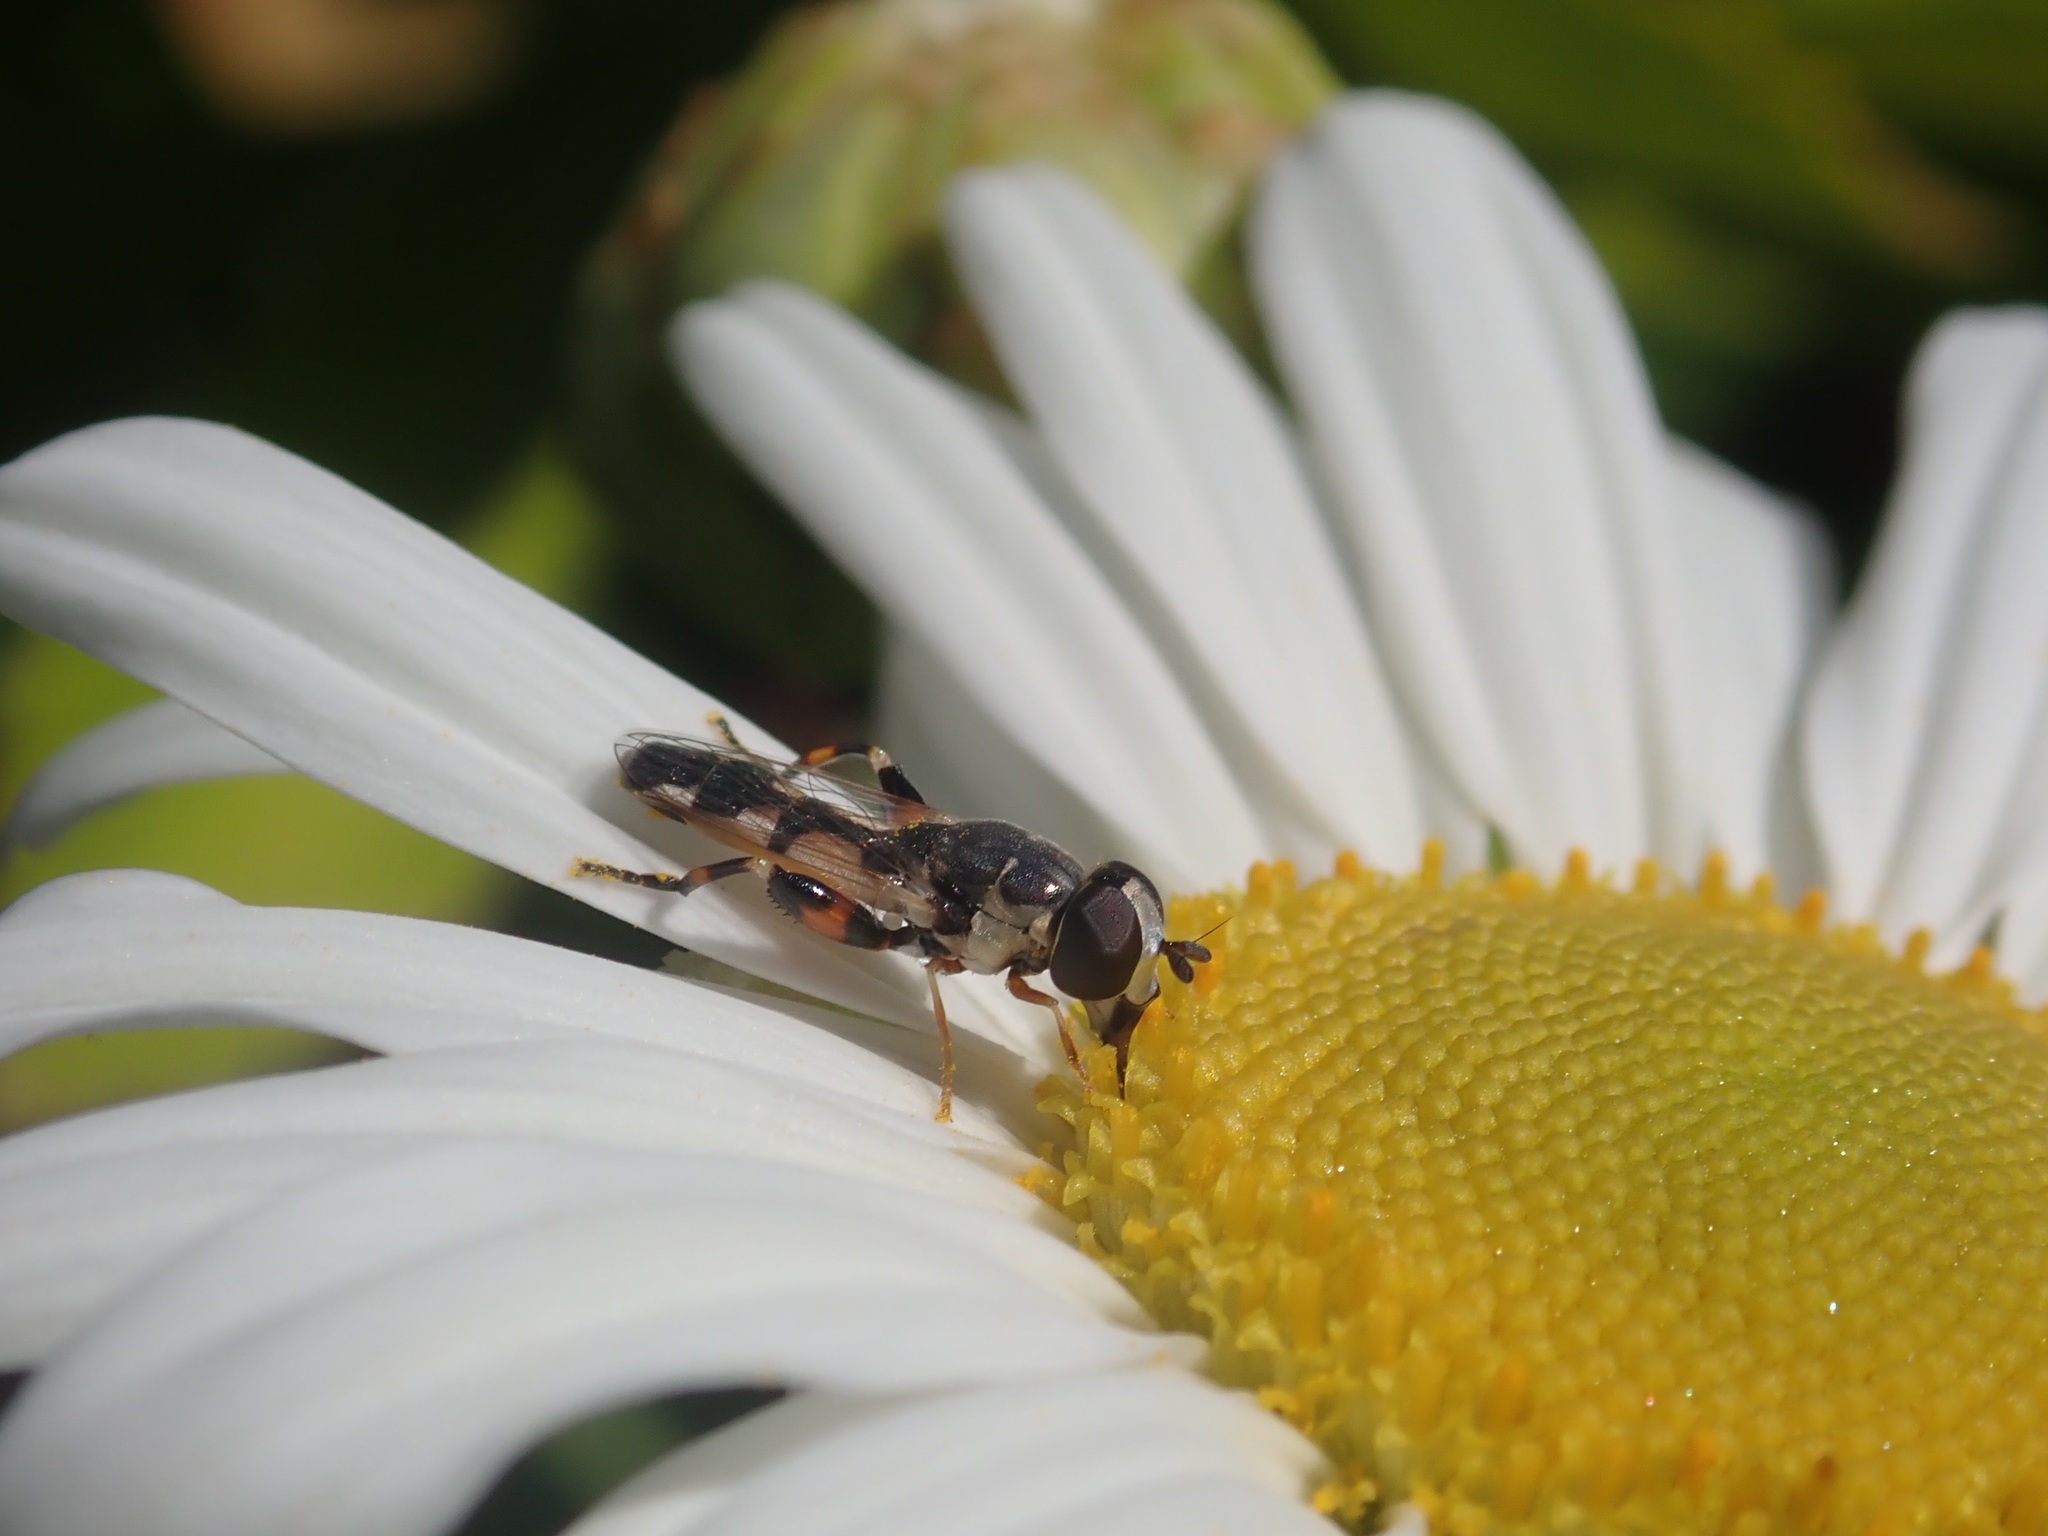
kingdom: Animalia
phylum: Arthropoda
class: Insecta
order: Diptera
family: Syrphidae
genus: Syritta
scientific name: Syritta flaviventris
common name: Syrphid fly
